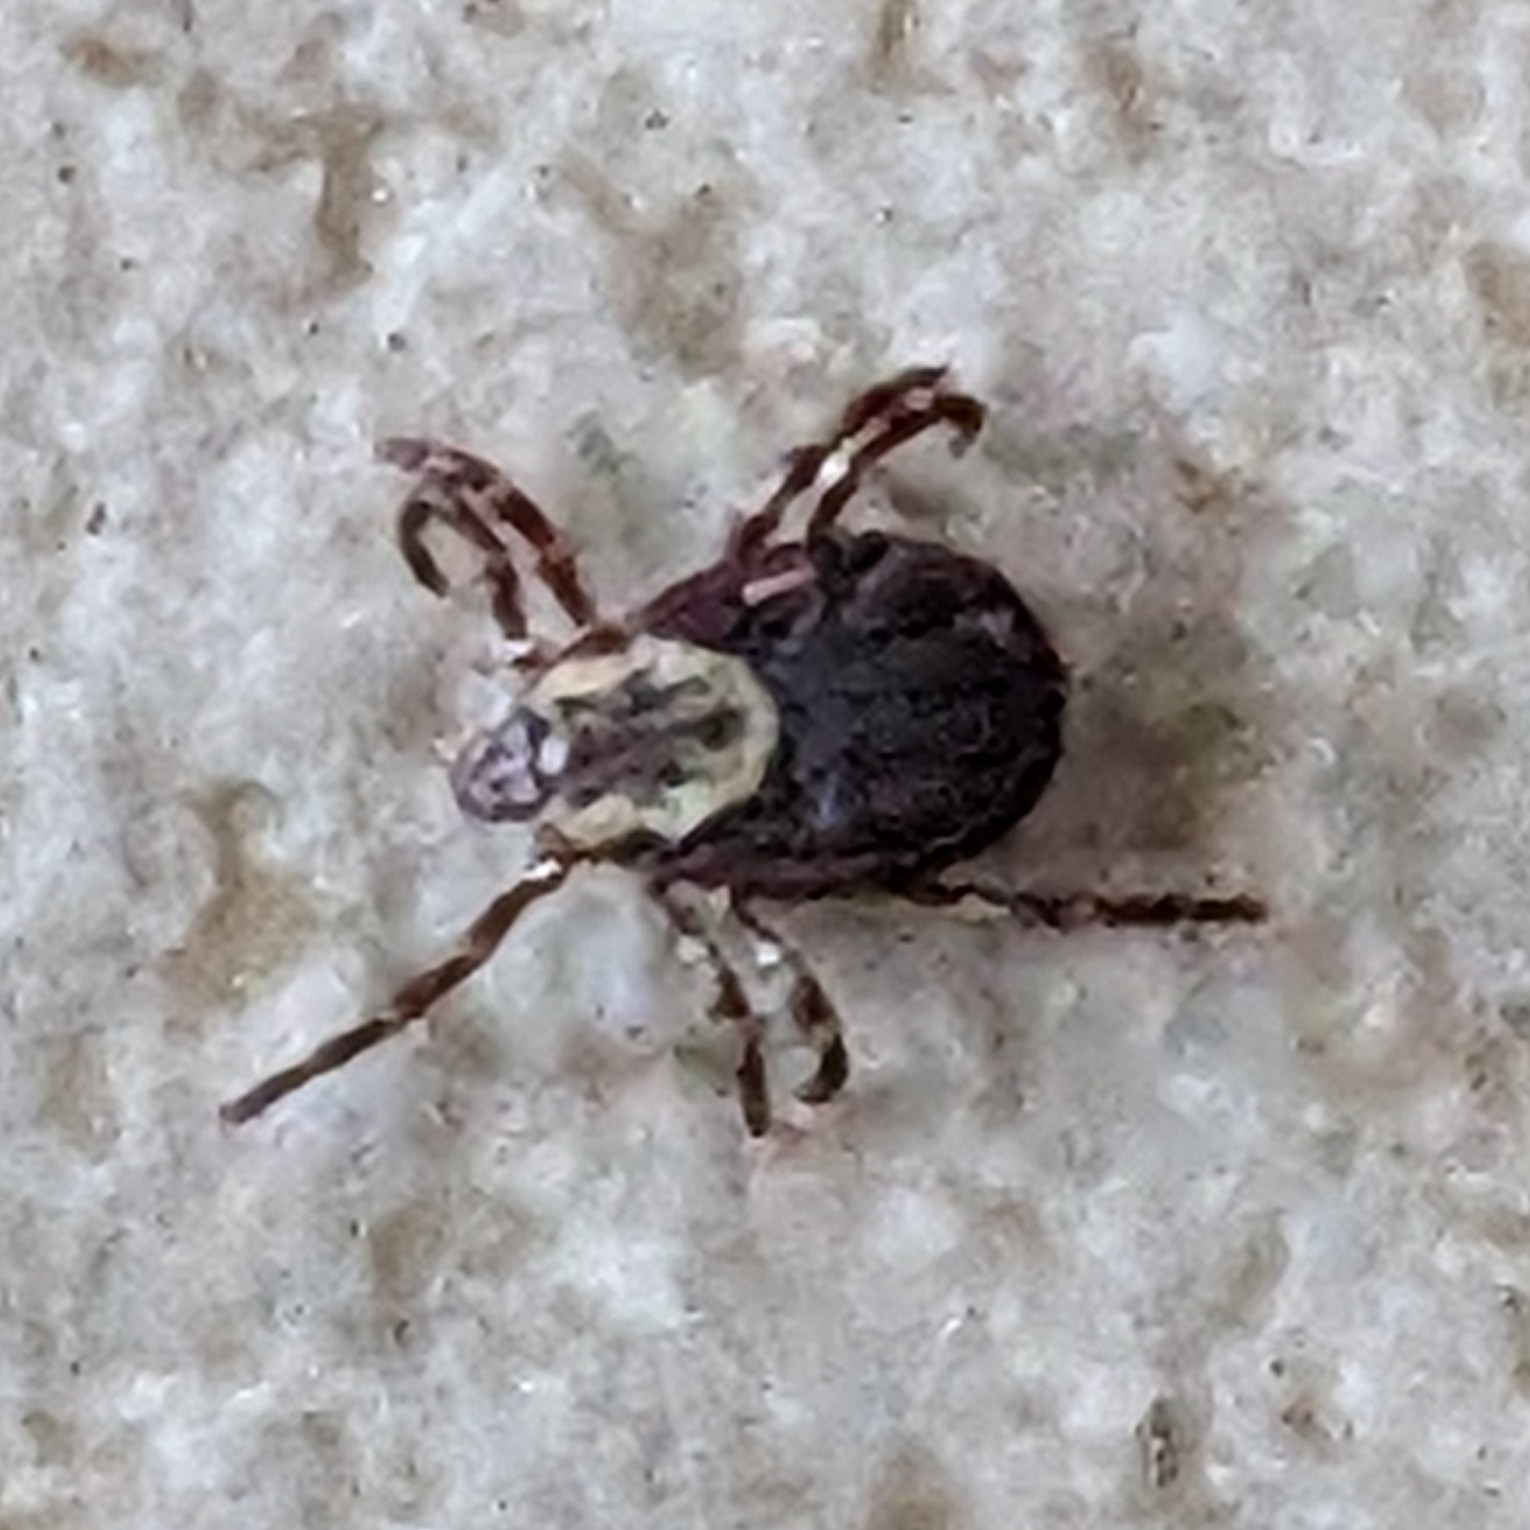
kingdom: Animalia
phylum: Arthropoda
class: Arachnida
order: Ixodida
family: Ixodidae
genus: Dermacentor
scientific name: Dermacentor variabilis
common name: American dog tick
